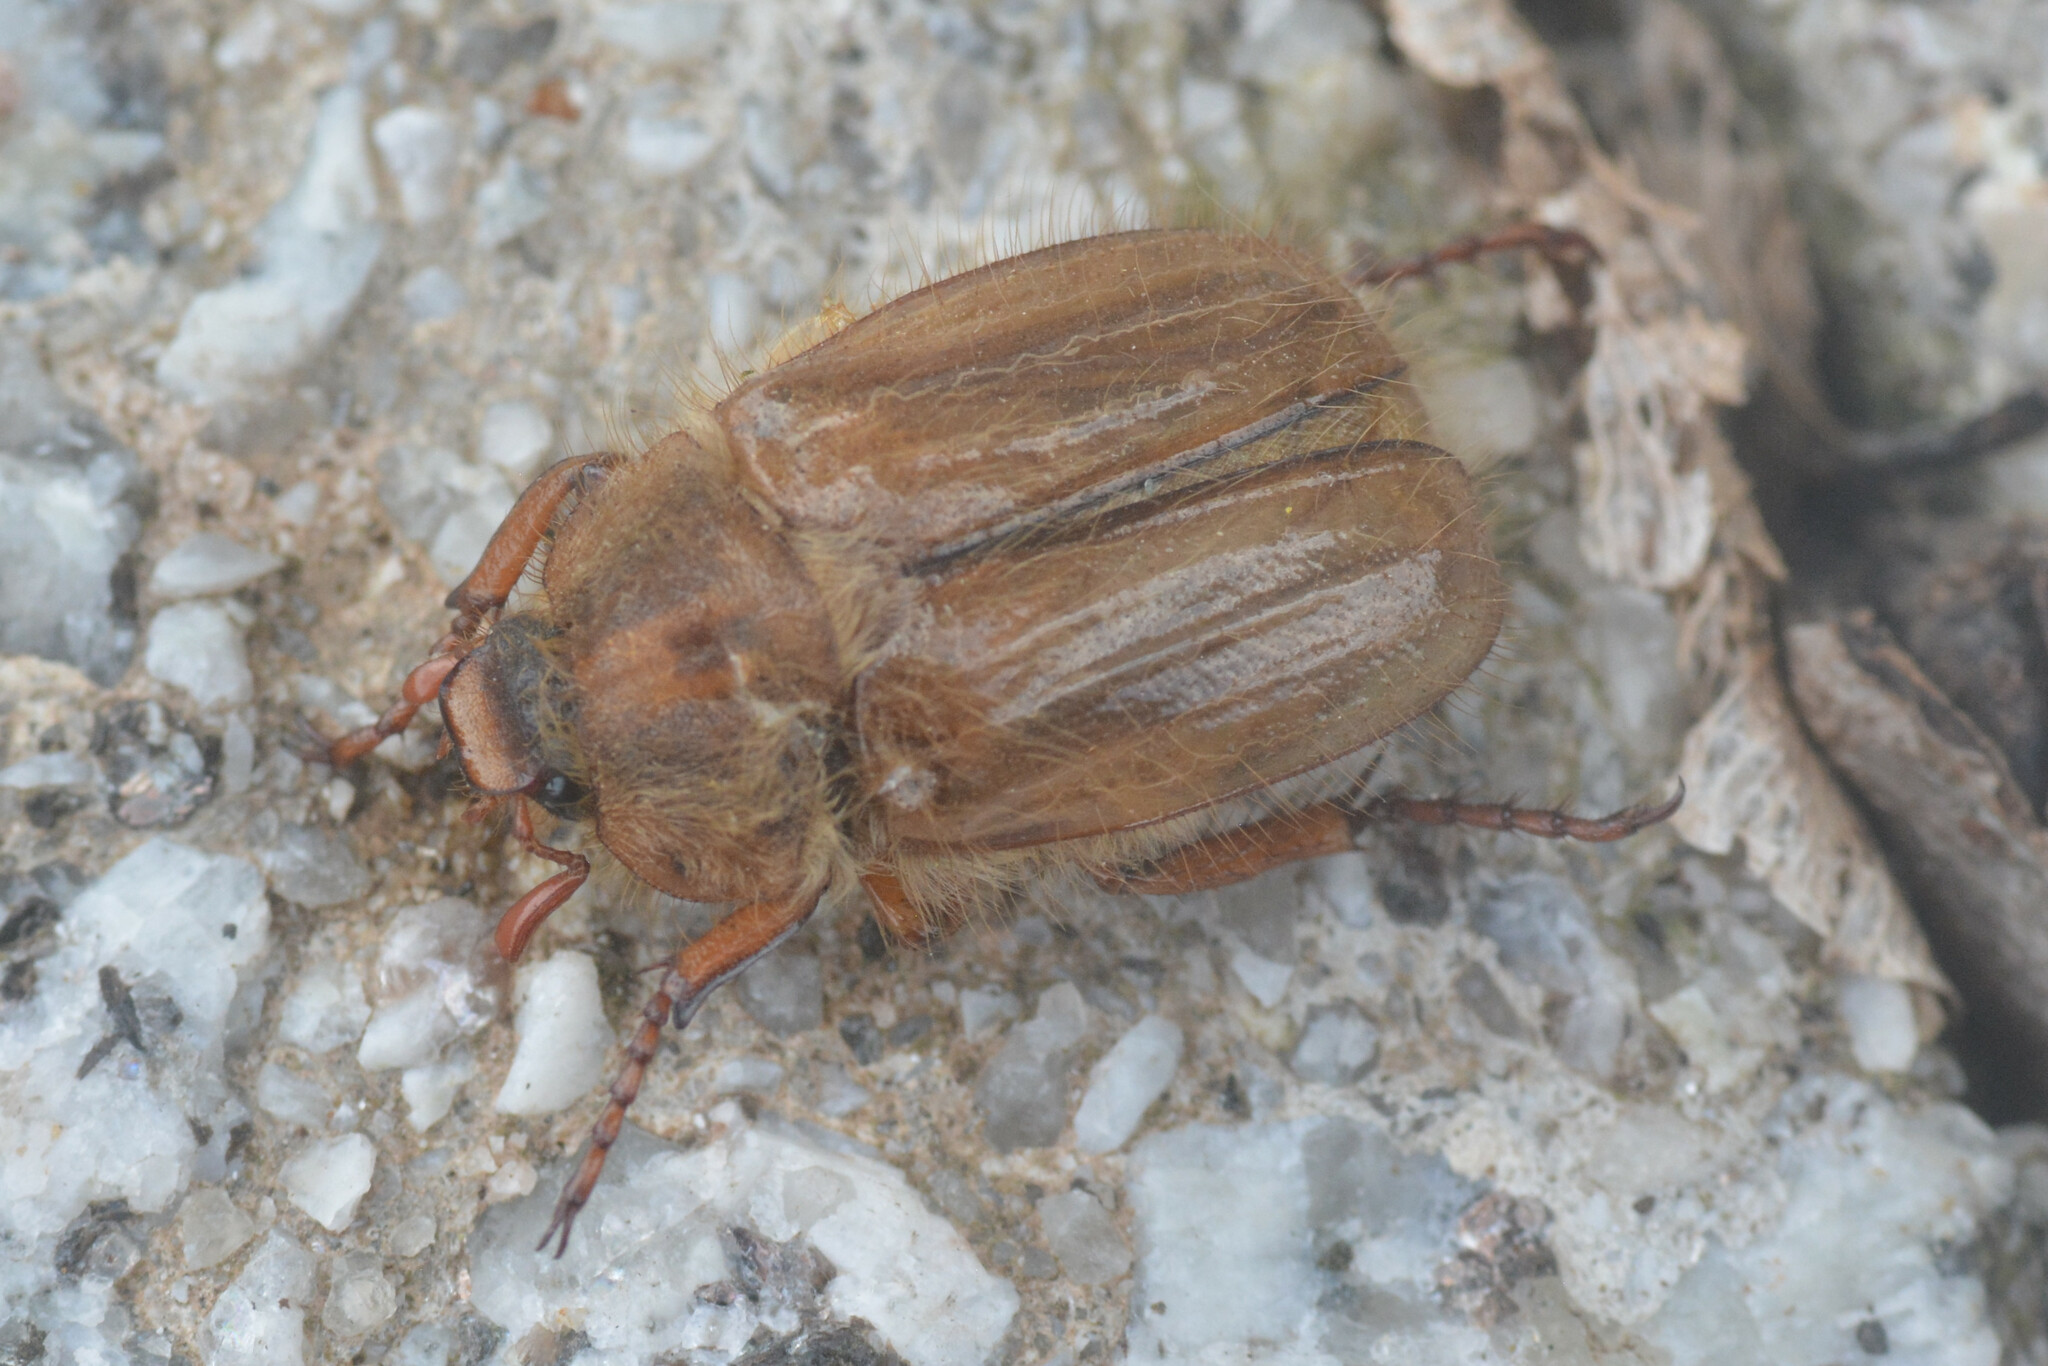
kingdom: Animalia
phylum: Arthropoda
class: Insecta
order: Coleoptera
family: Scarabaeidae
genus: Amphimallon
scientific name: Amphimallon solstitiale
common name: Summer chafer
